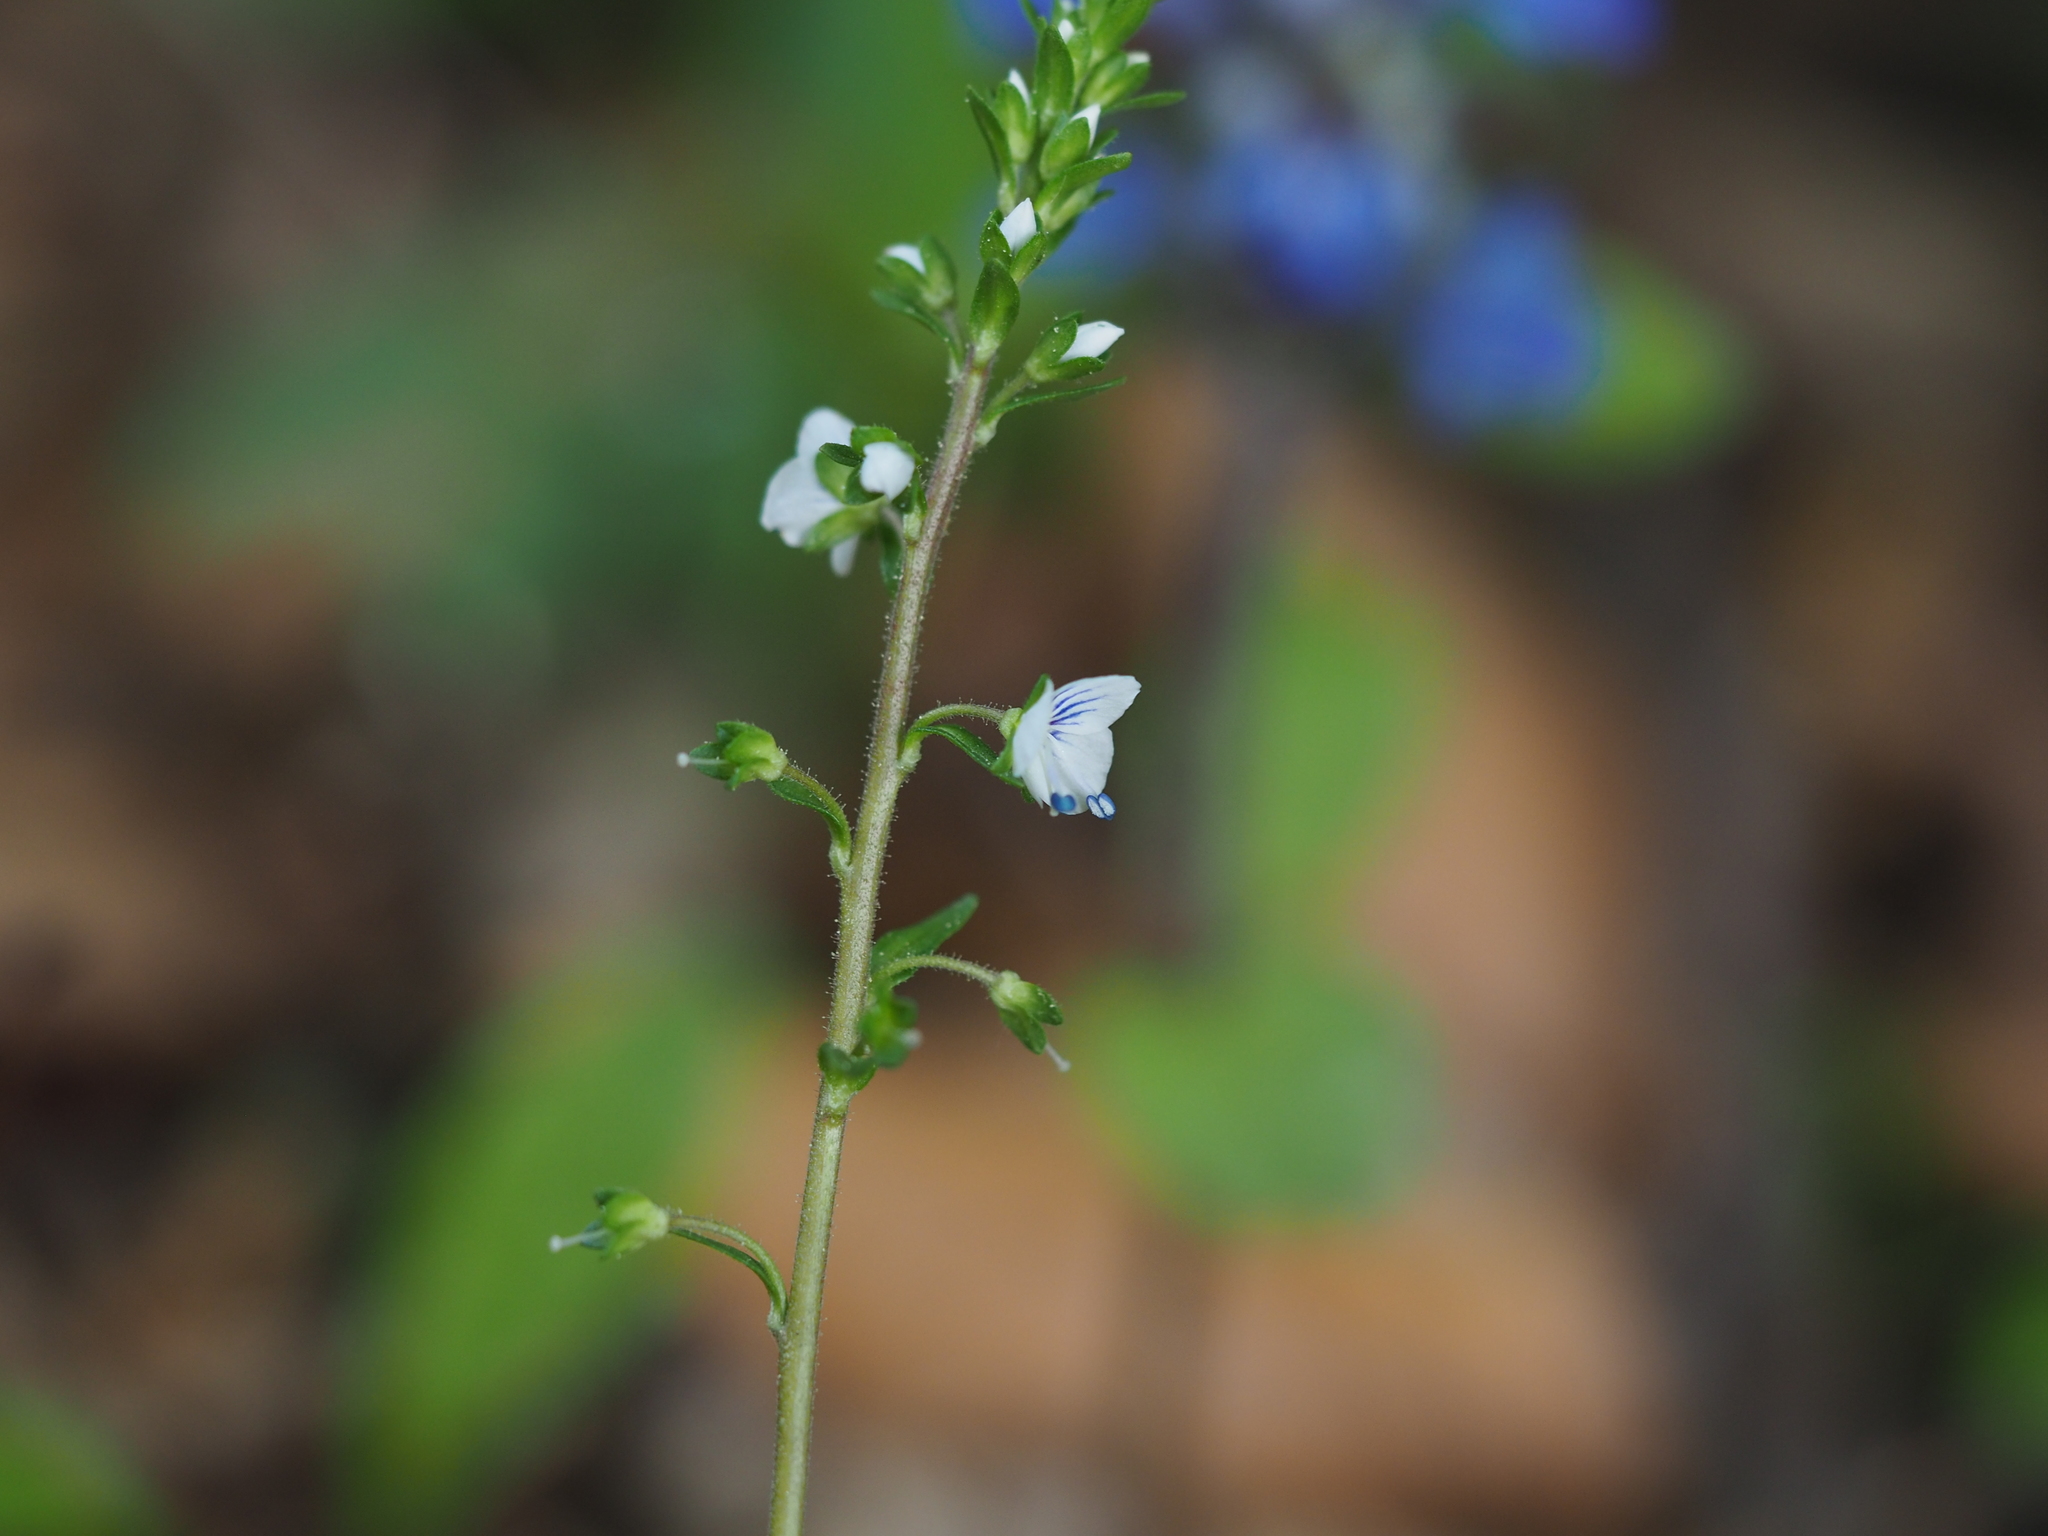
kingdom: Plantae
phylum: Tracheophyta
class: Magnoliopsida
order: Lamiales
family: Plantaginaceae
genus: Veronica
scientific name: Veronica serpyllifolia
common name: Thyme-leaved speedwell
